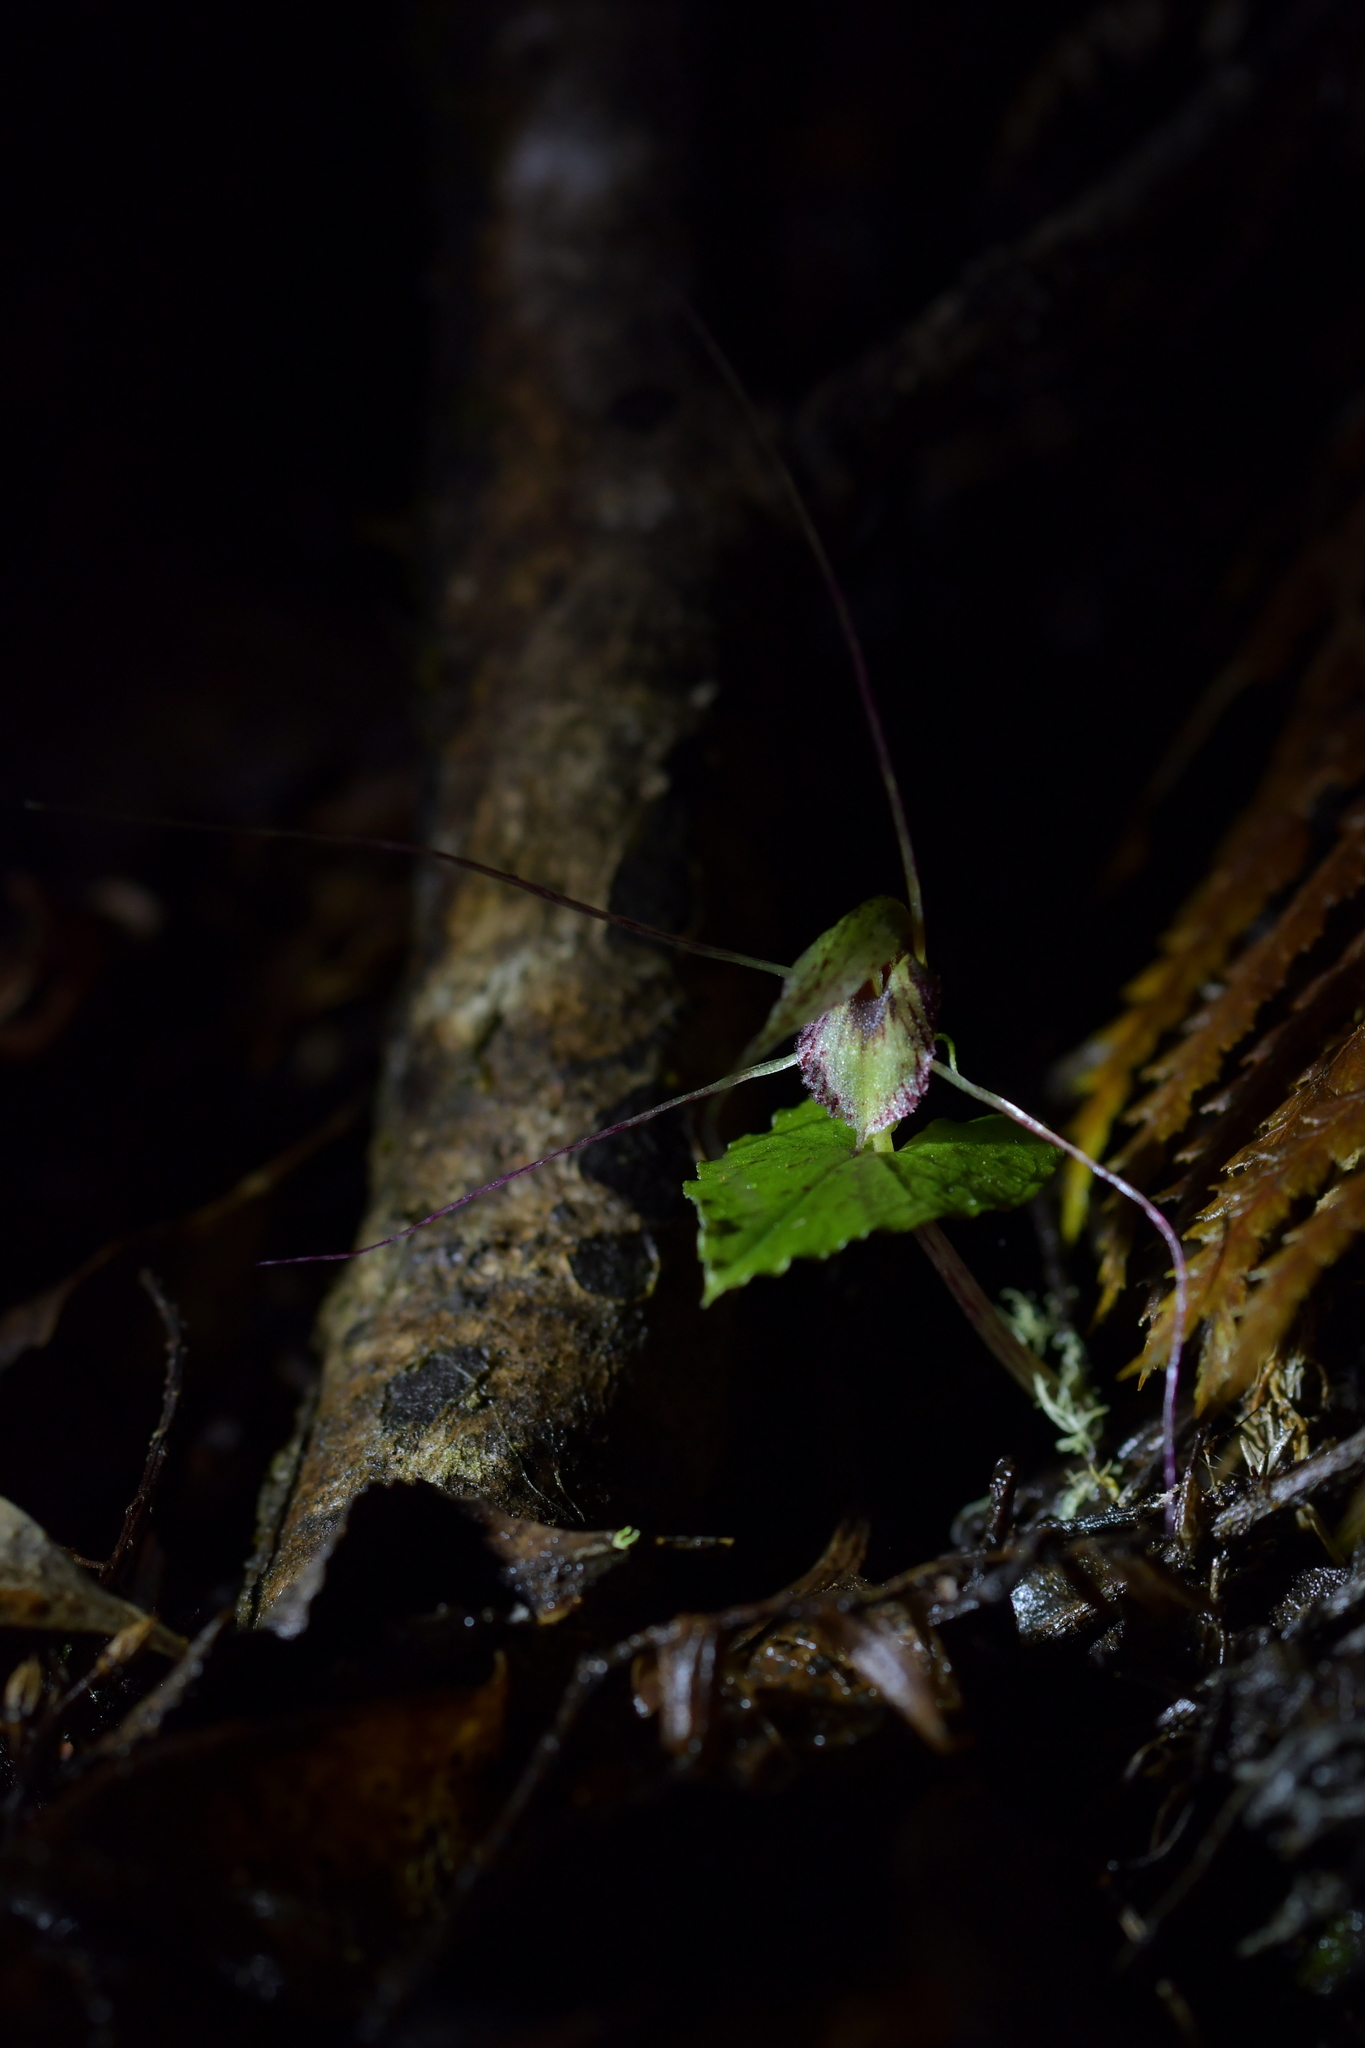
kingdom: Plantae
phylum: Tracheophyta
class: Liliopsida
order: Asparagales
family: Orchidaceae
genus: Corybas
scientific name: Corybas acuminatus
